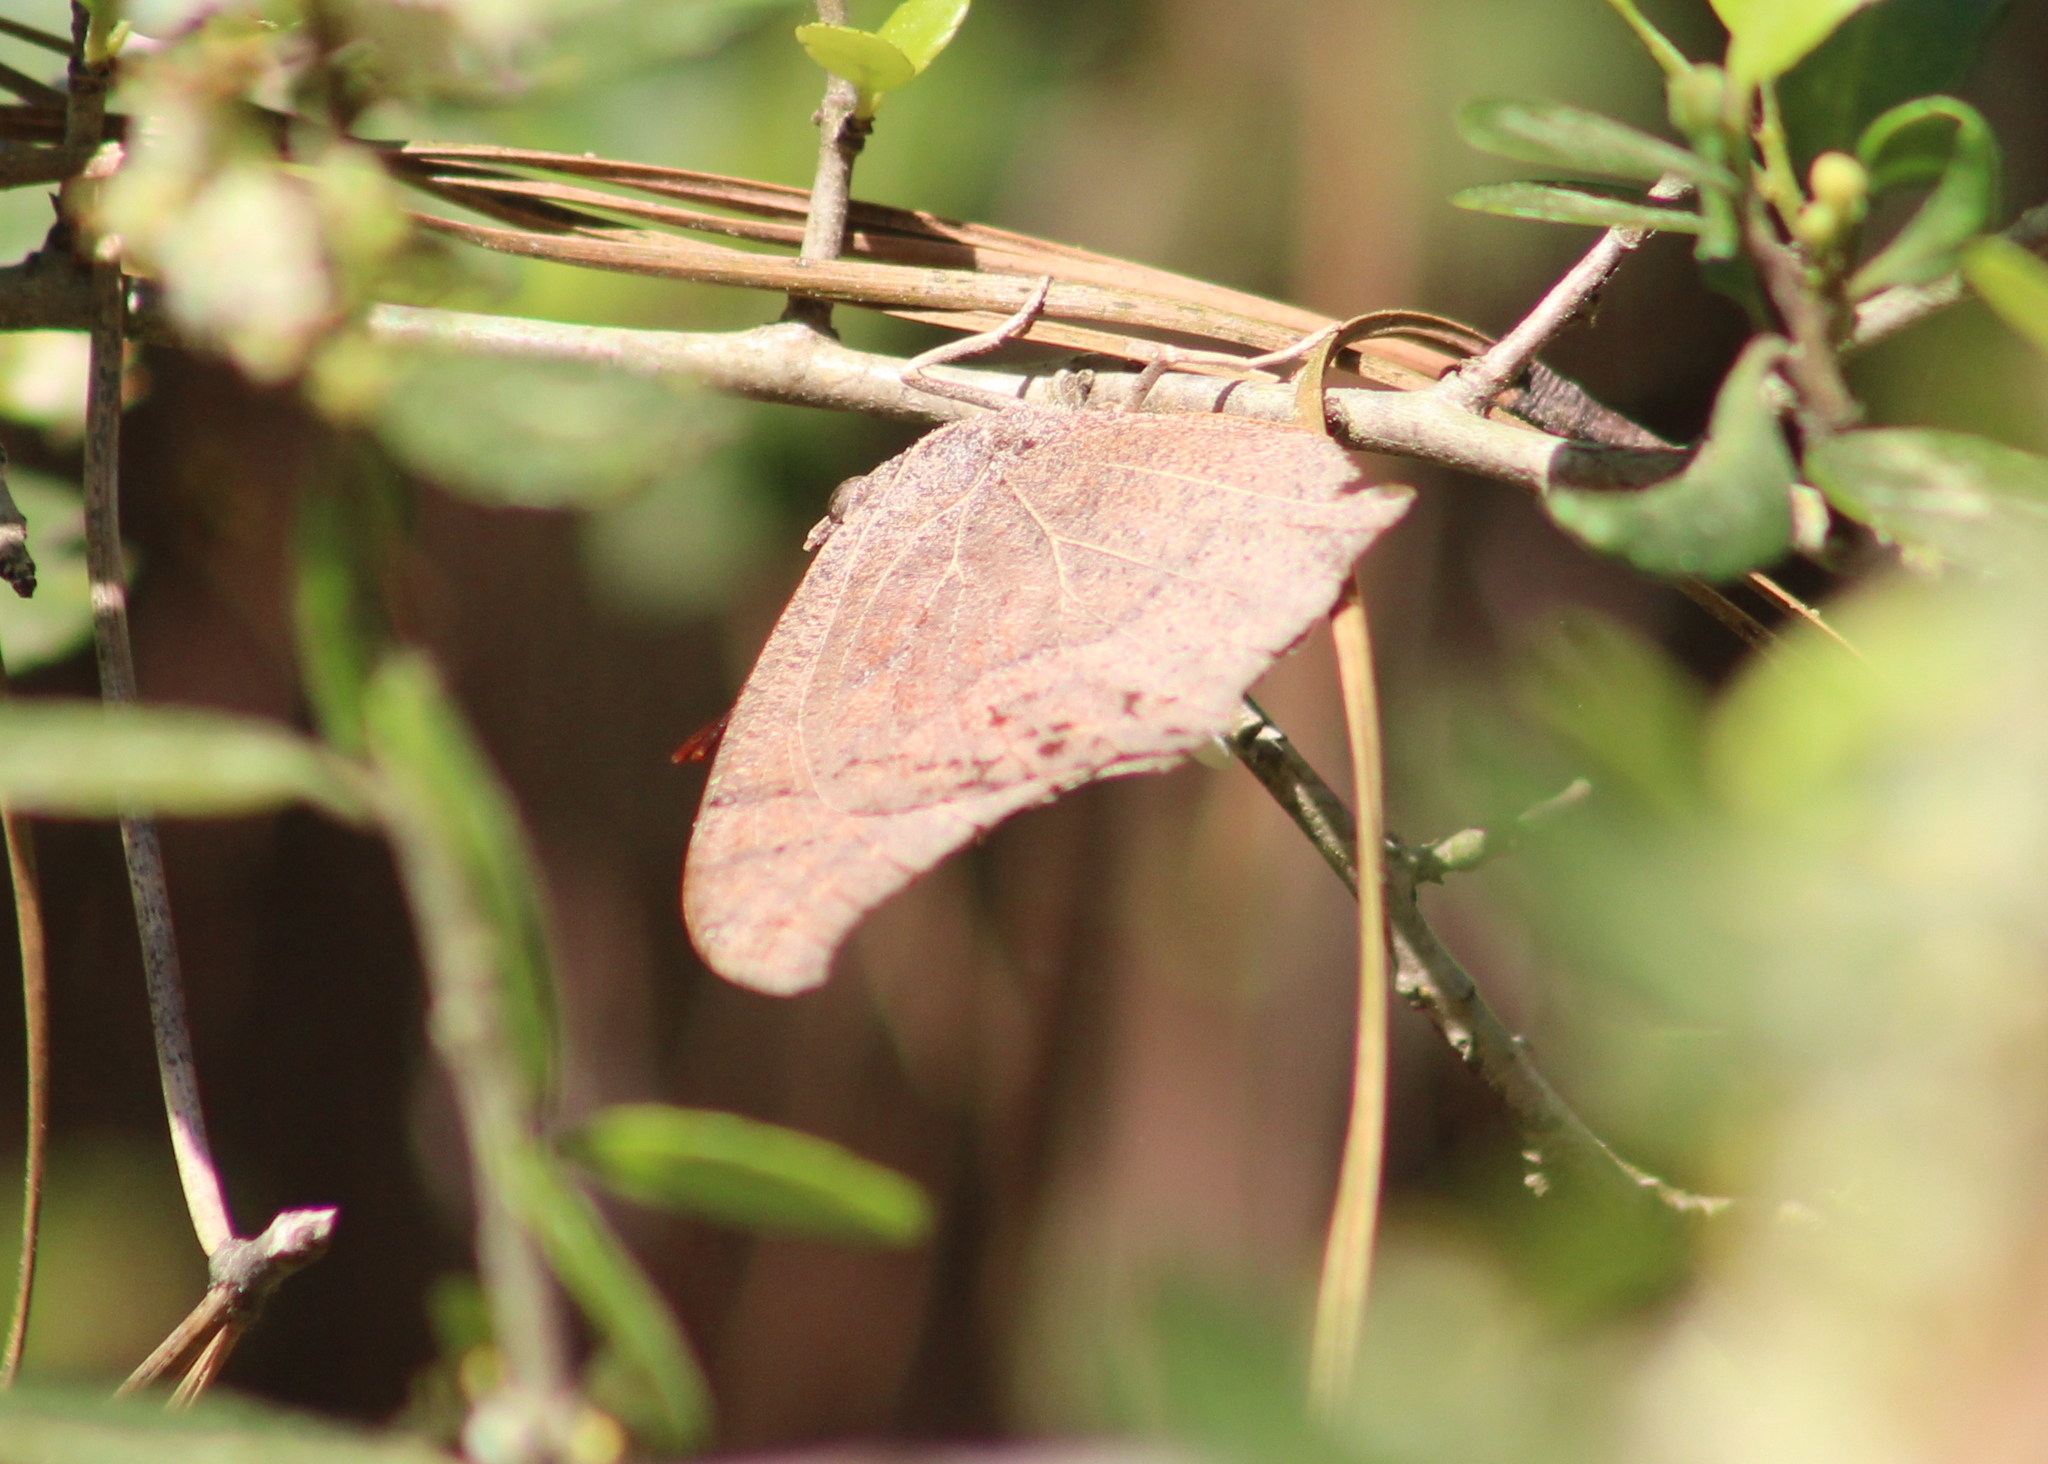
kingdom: Animalia
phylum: Arthropoda
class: Insecta
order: Lepidoptera
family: Nymphalidae
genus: Anaea
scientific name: Anaea andria
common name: Goatweed leafwing
